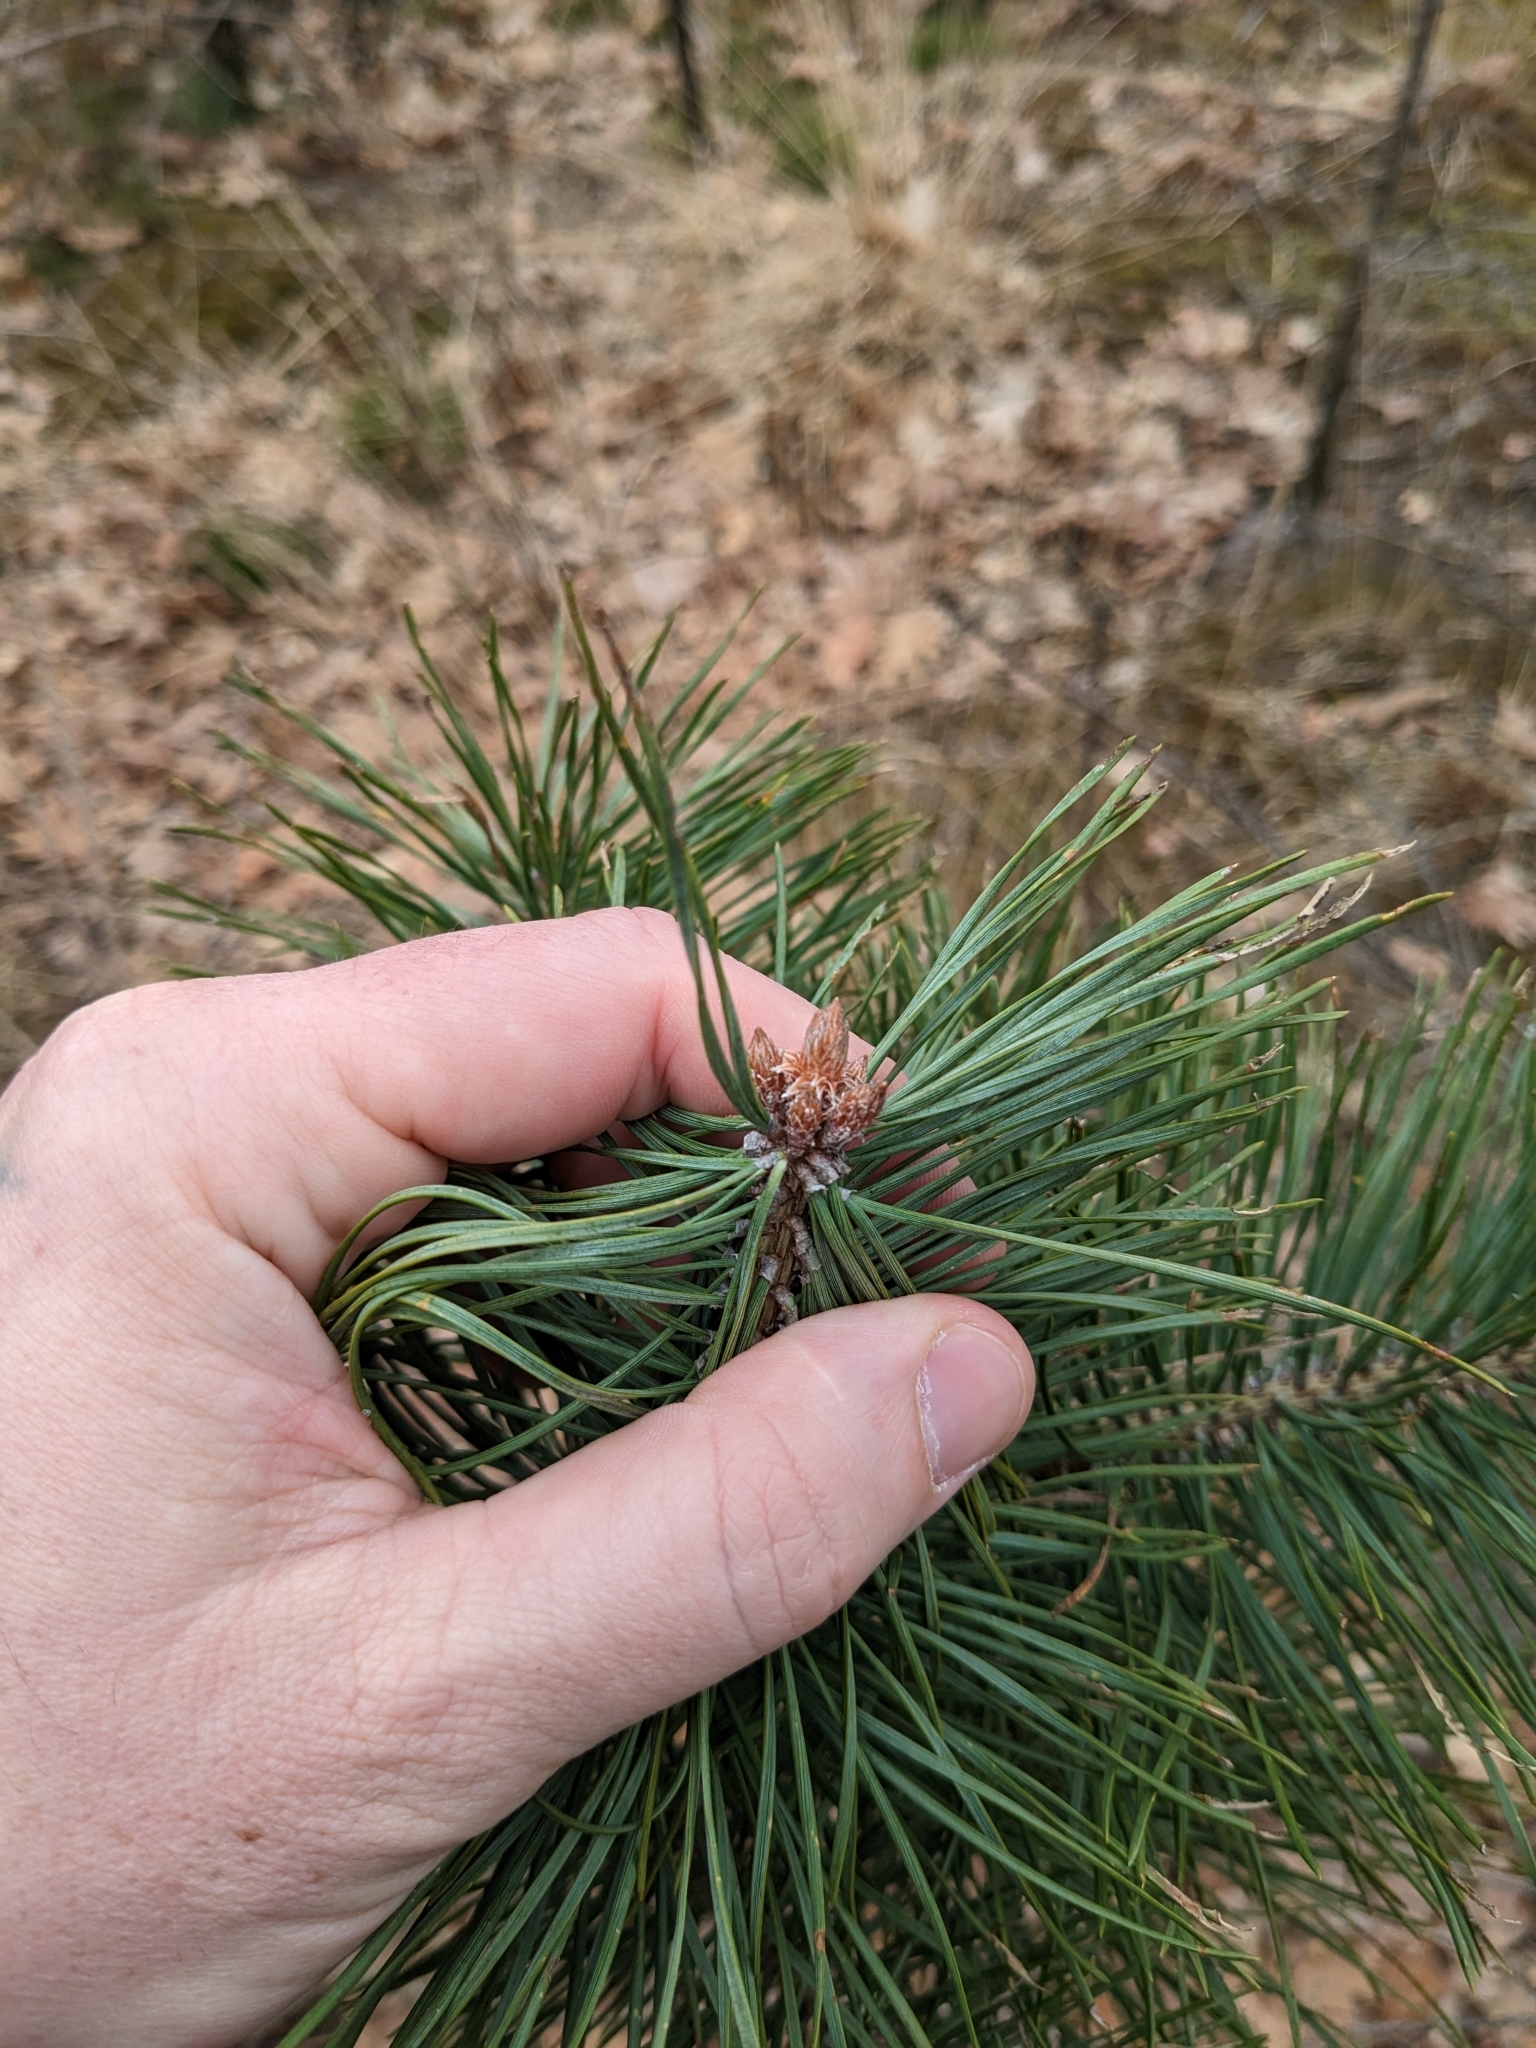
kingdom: Plantae
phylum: Tracheophyta
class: Pinopsida
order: Pinales
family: Pinaceae
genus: Pinus
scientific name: Pinus sylvestris
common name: Scots pine
